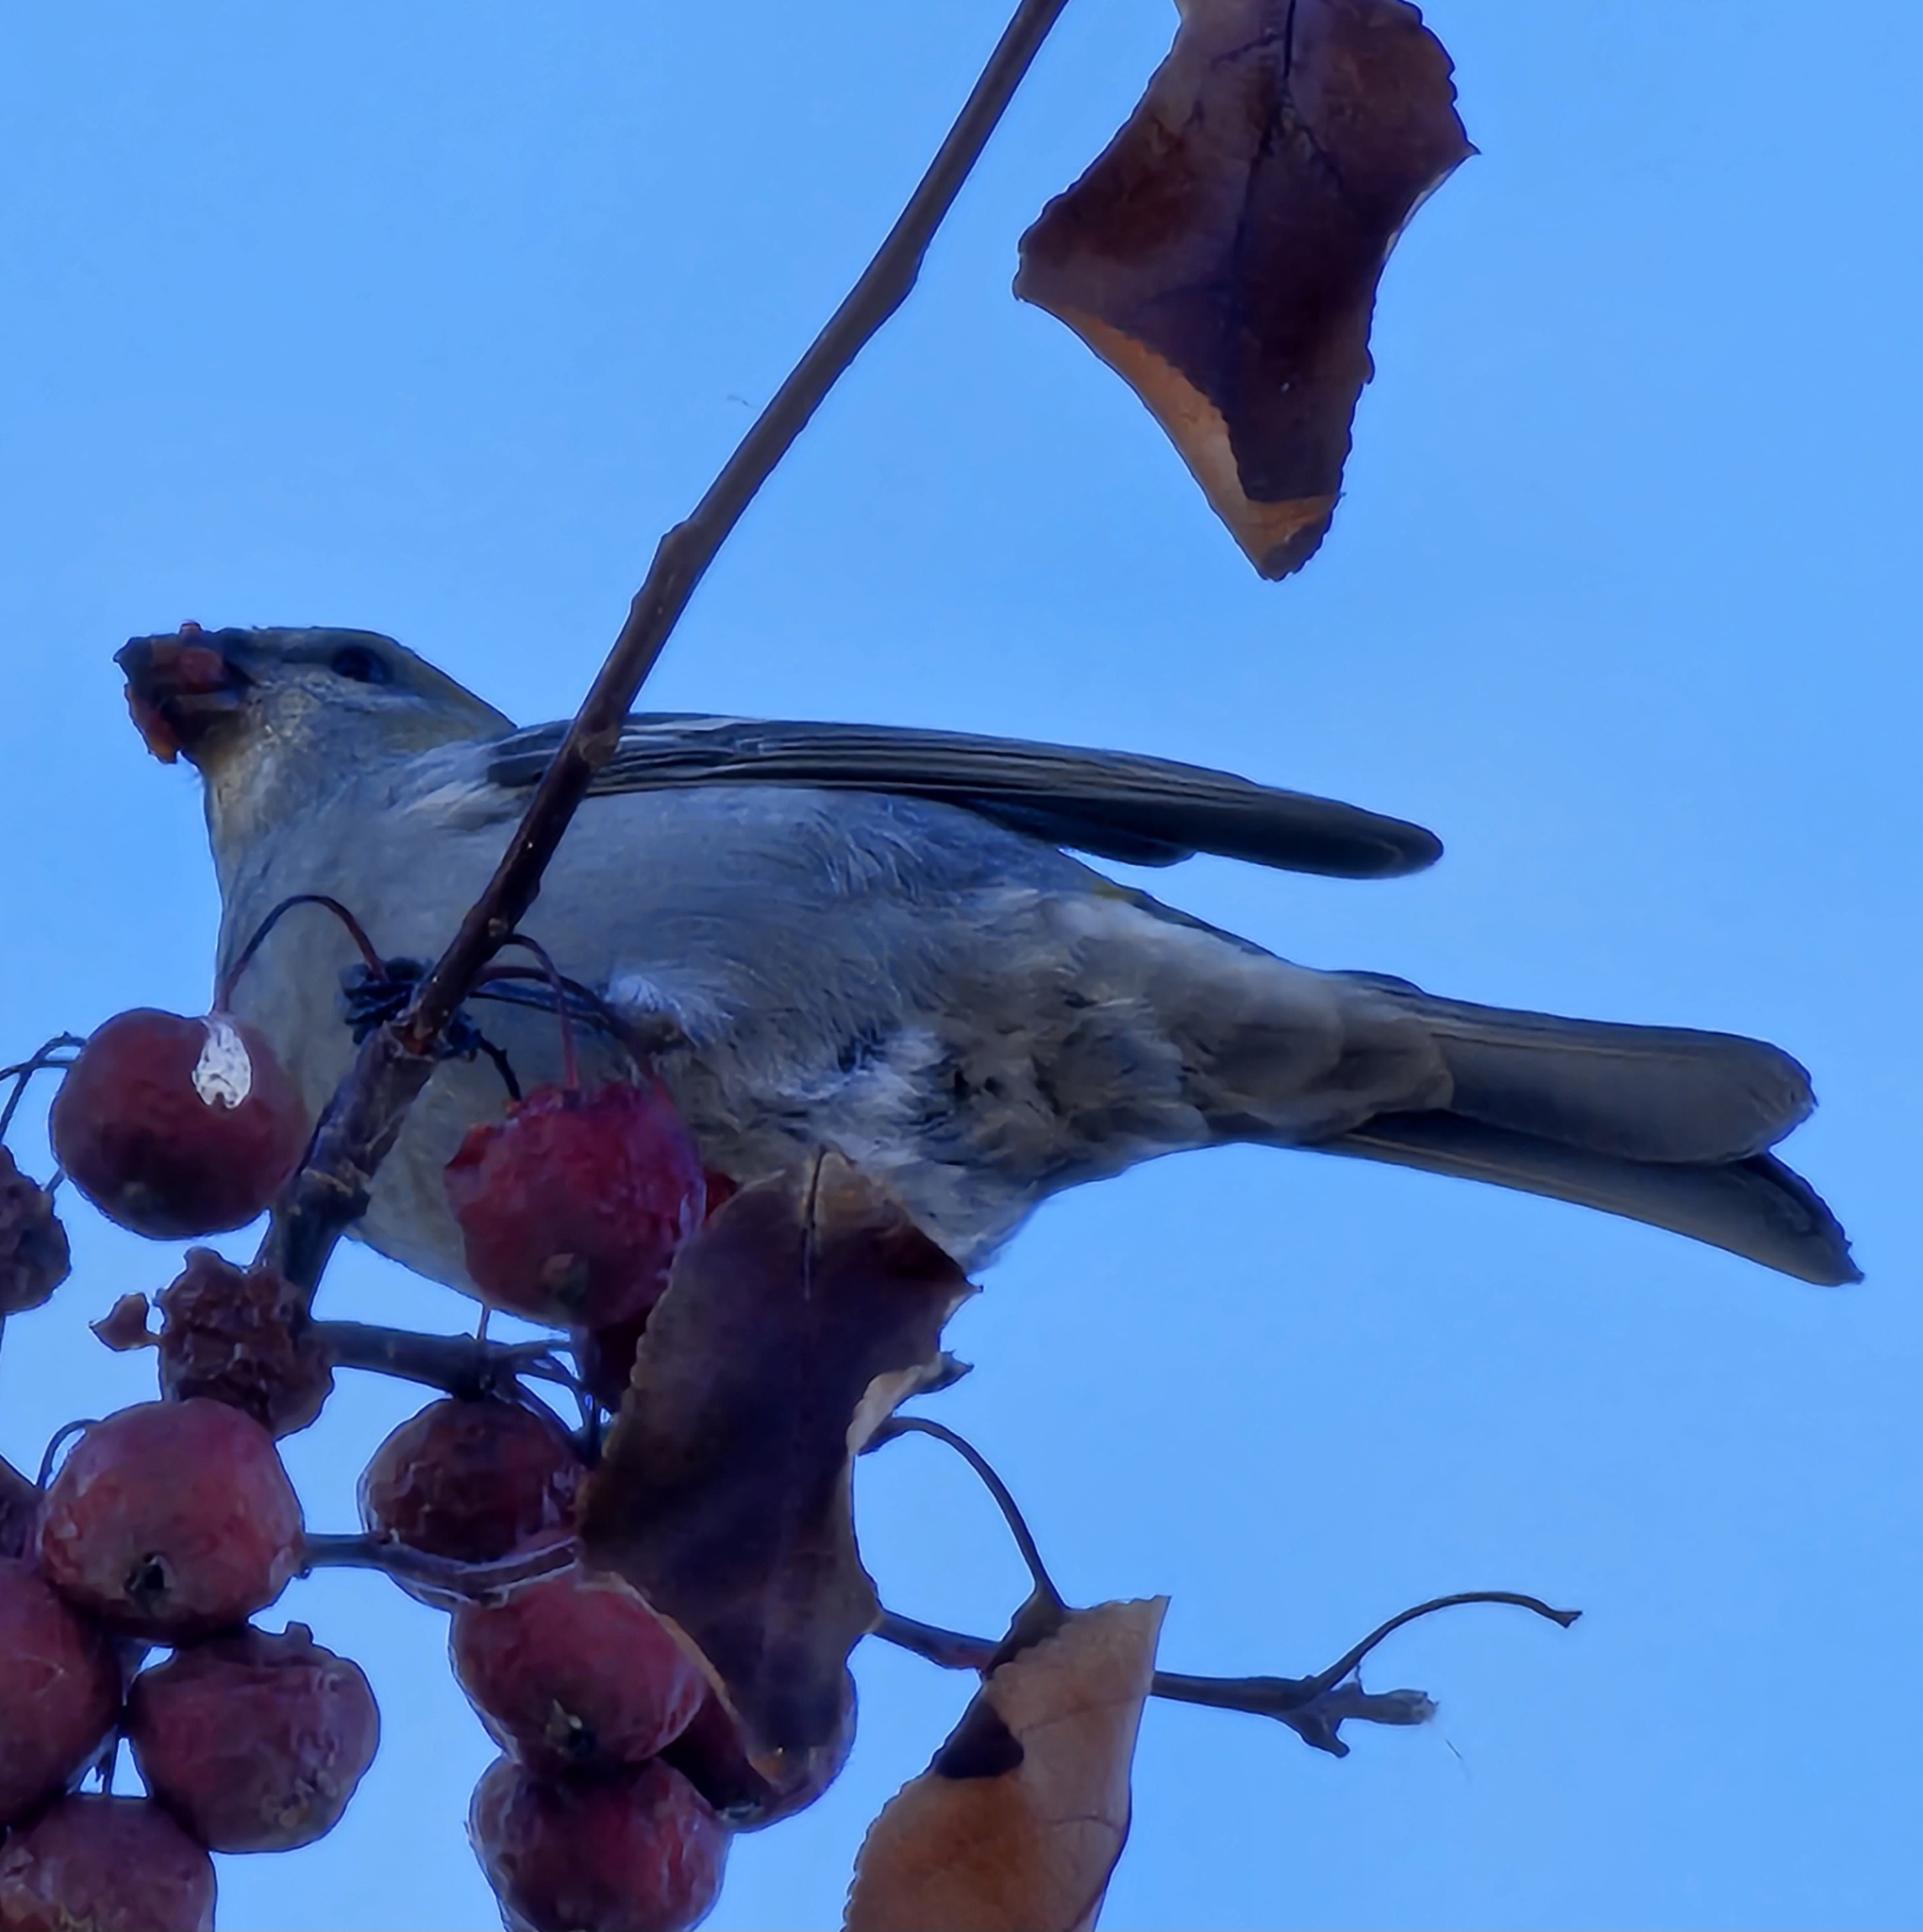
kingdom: Animalia
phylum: Chordata
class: Aves
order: Passeriformes
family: Fringillidae
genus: Pinicola
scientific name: Pinicola enucleator
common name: Pine grosbeak
